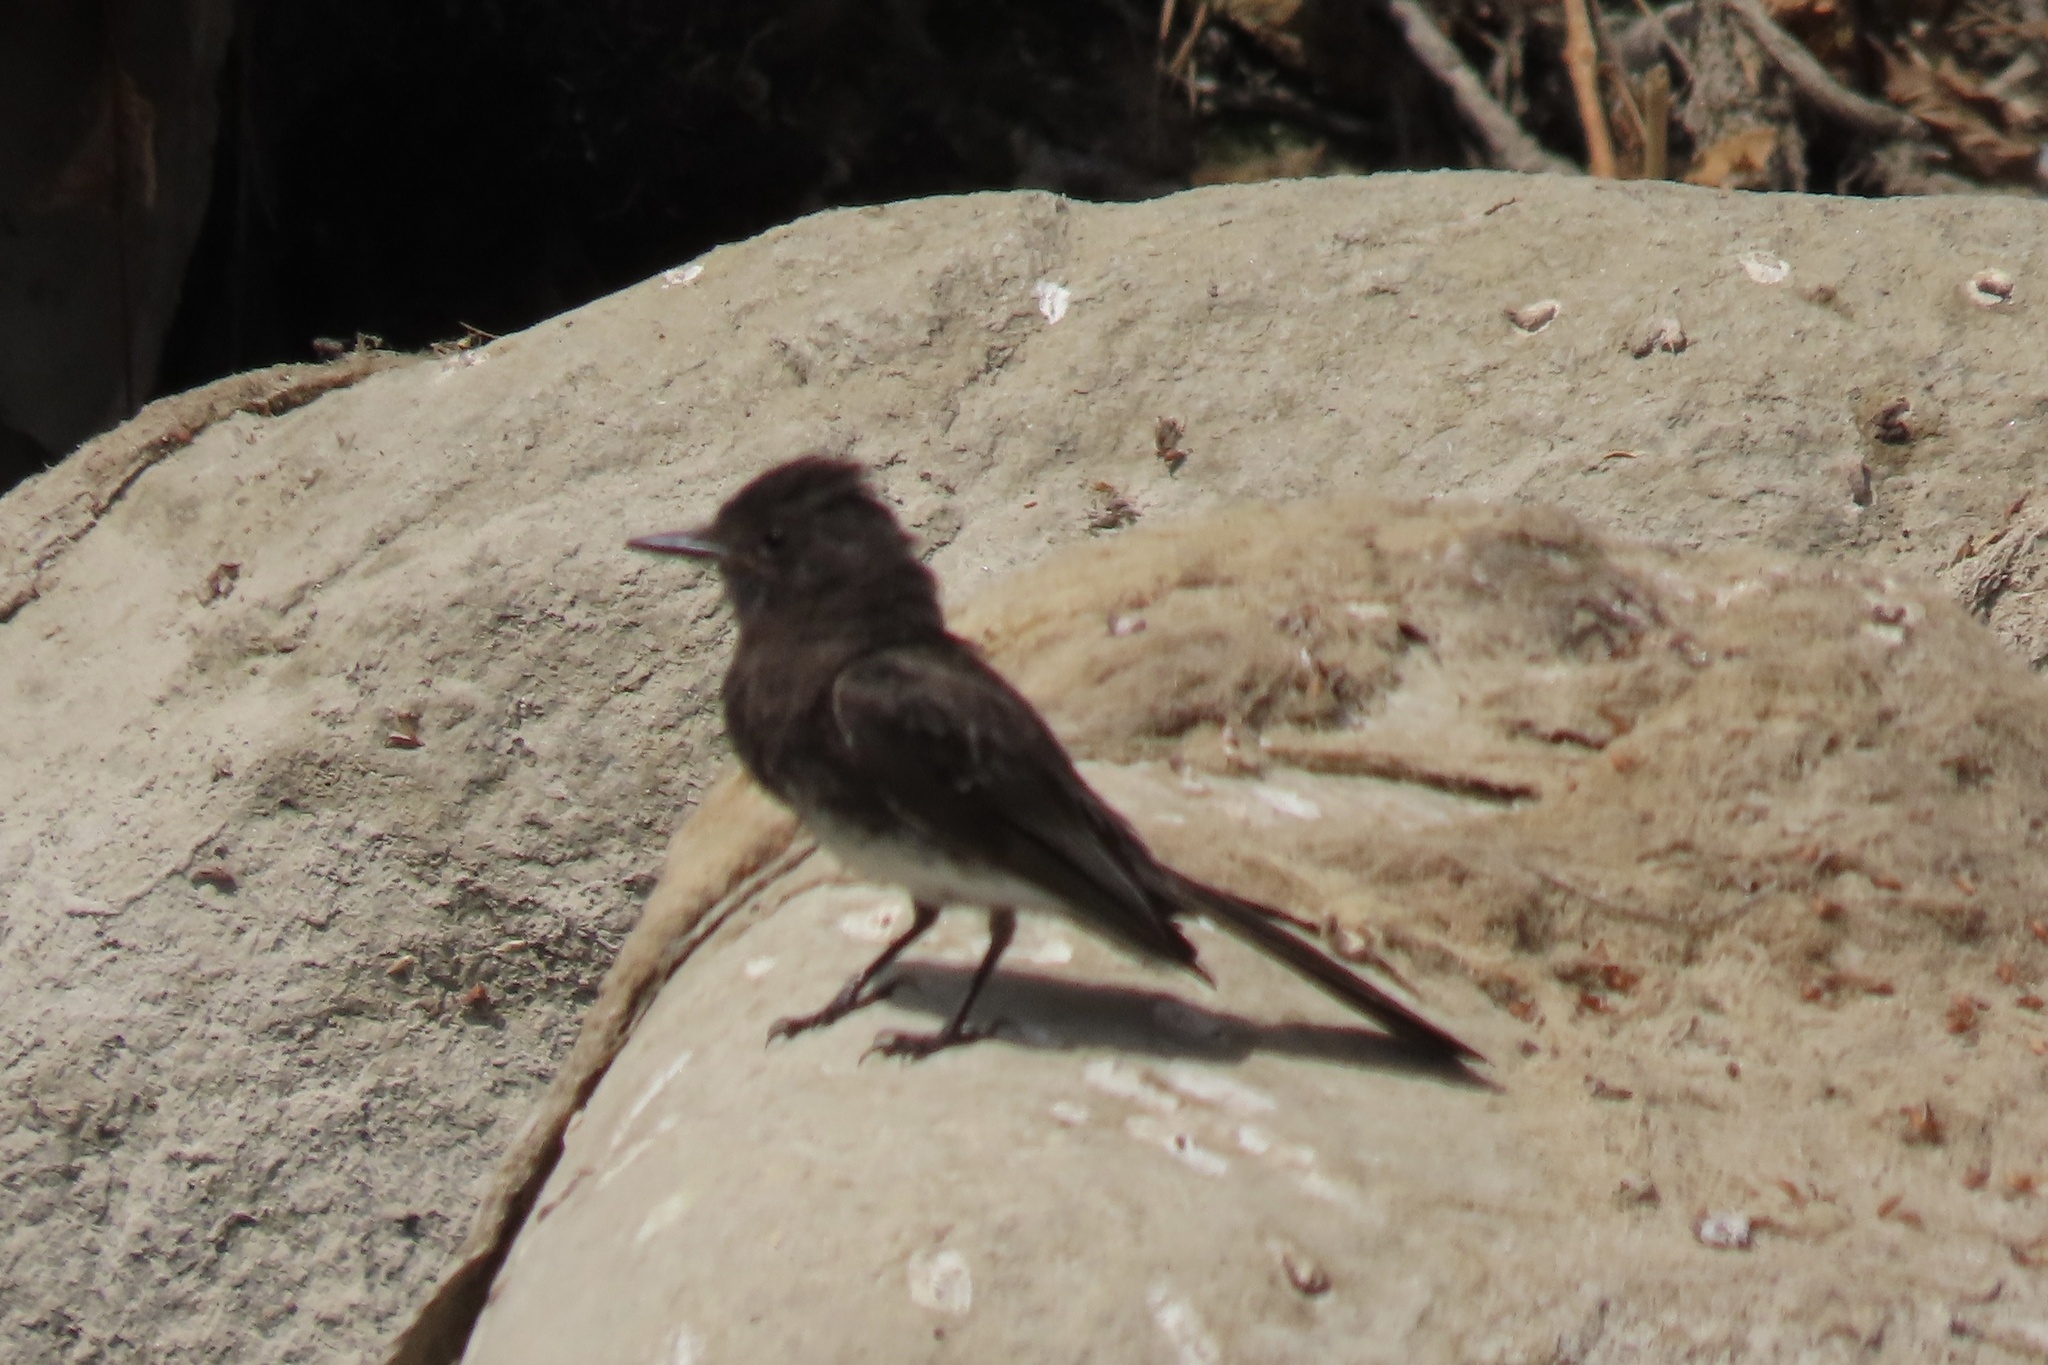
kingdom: Animalia
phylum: Chordata
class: Aves
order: Passeriformes
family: Tyrannidae
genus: Sayornis
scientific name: Sayornis nigricans
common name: Black phoebe
